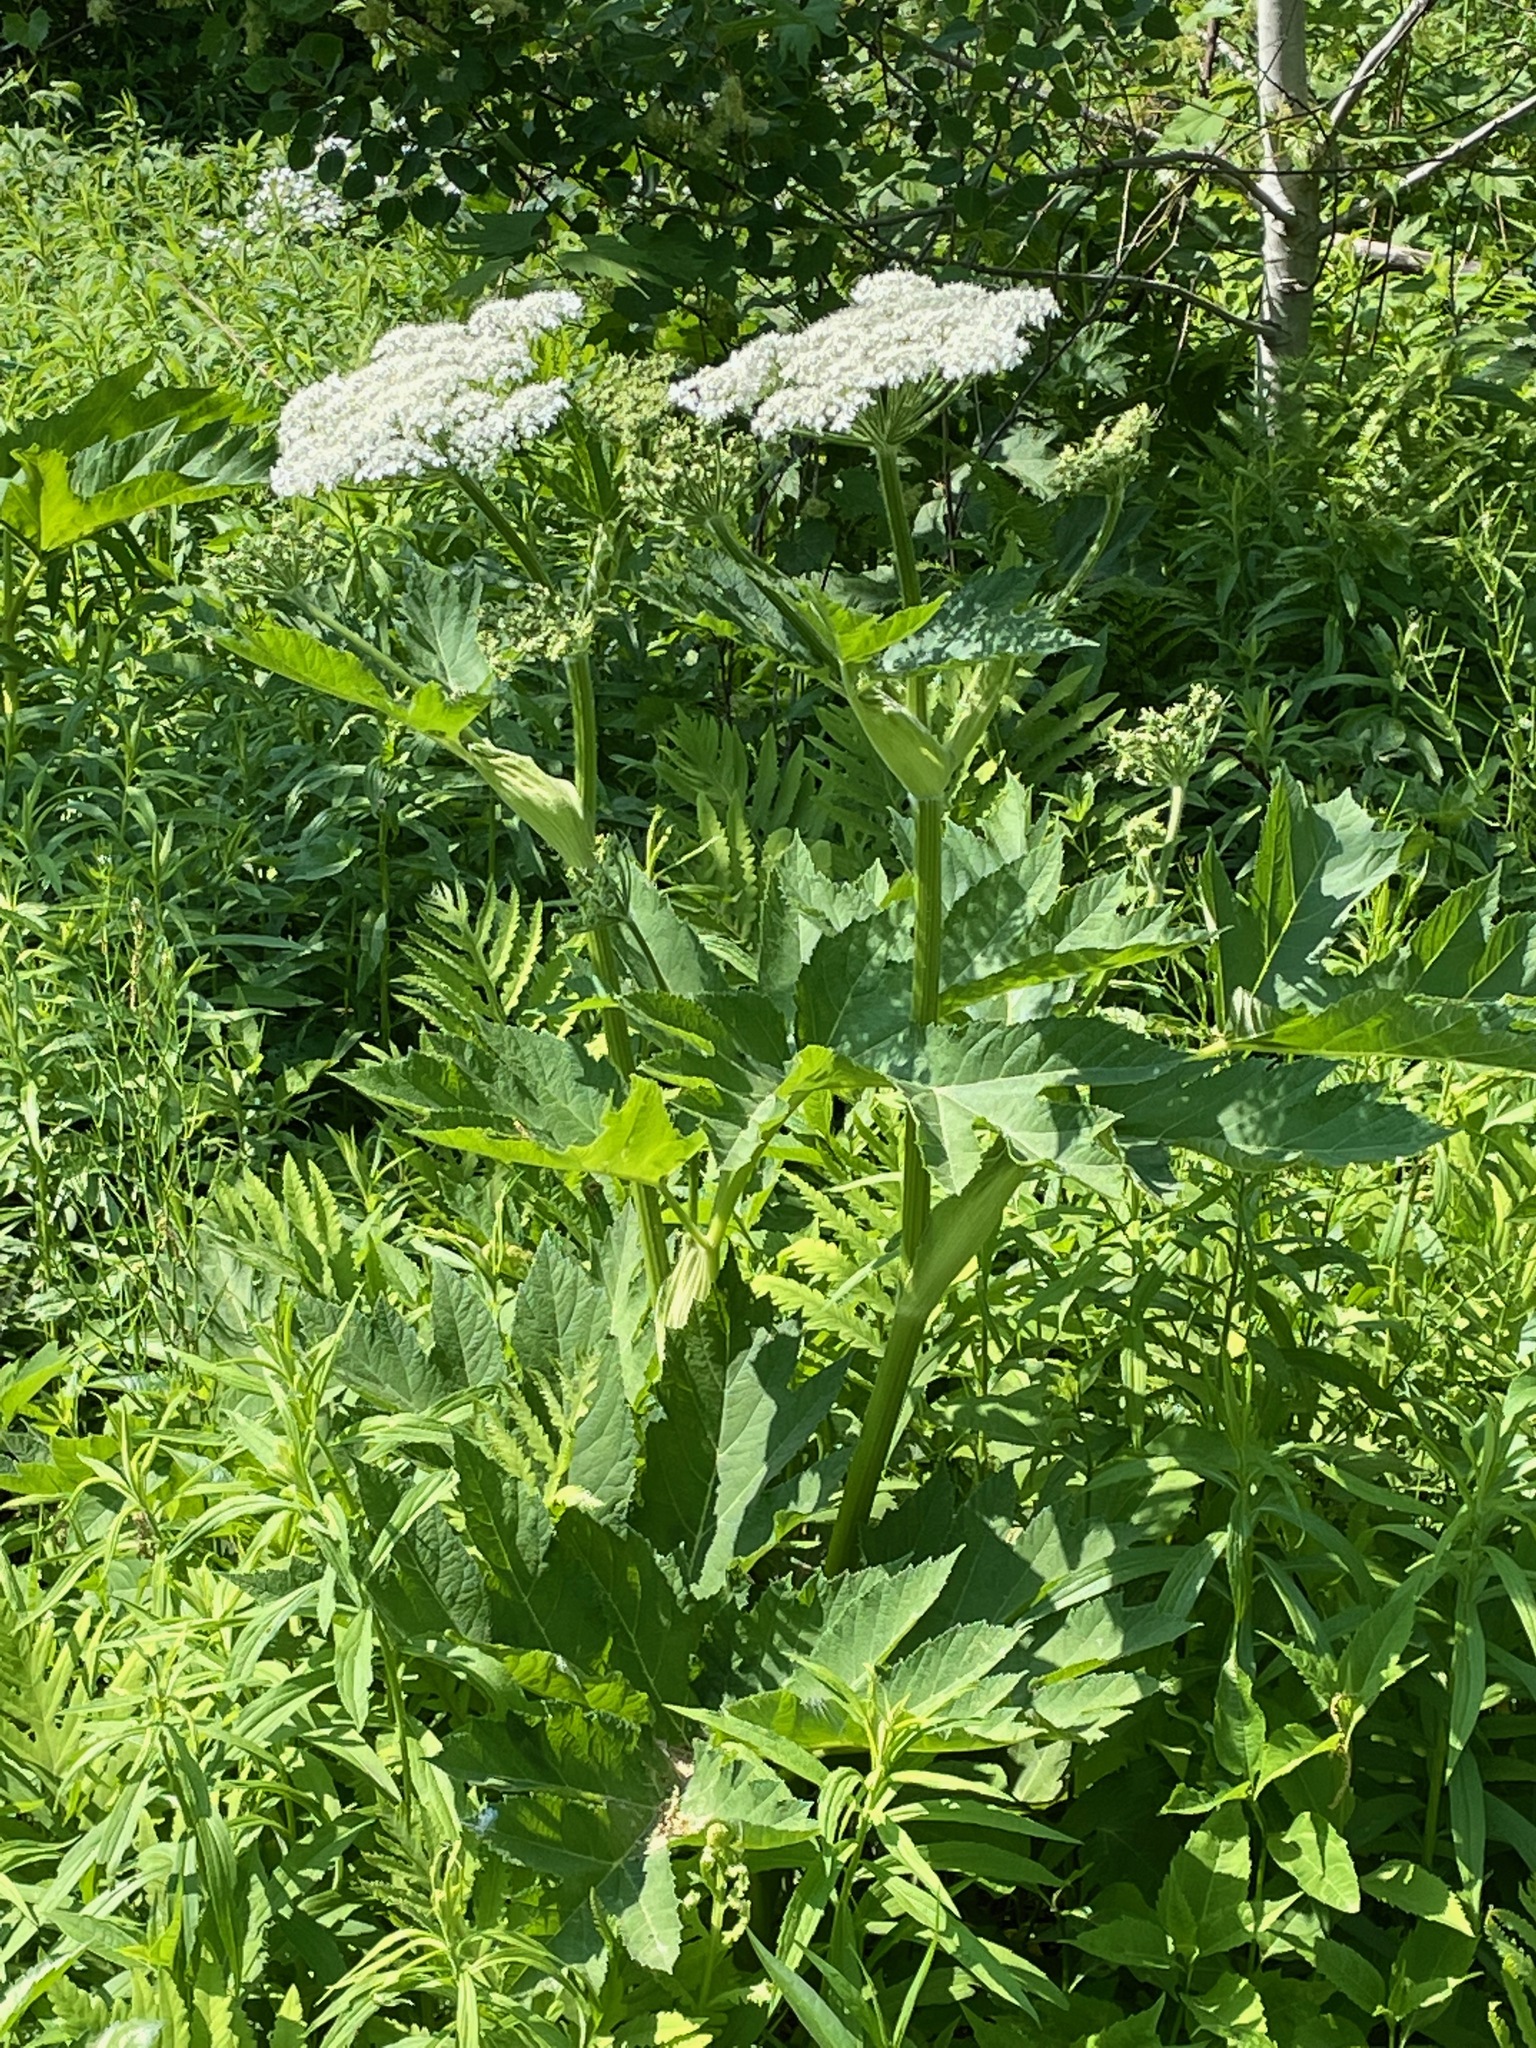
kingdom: Plantae
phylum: Tracheophyta
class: Magnoliopsida
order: Apiales
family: Apiaceae
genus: Heracleum
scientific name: Heracleum maximum
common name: American cow parsnip
